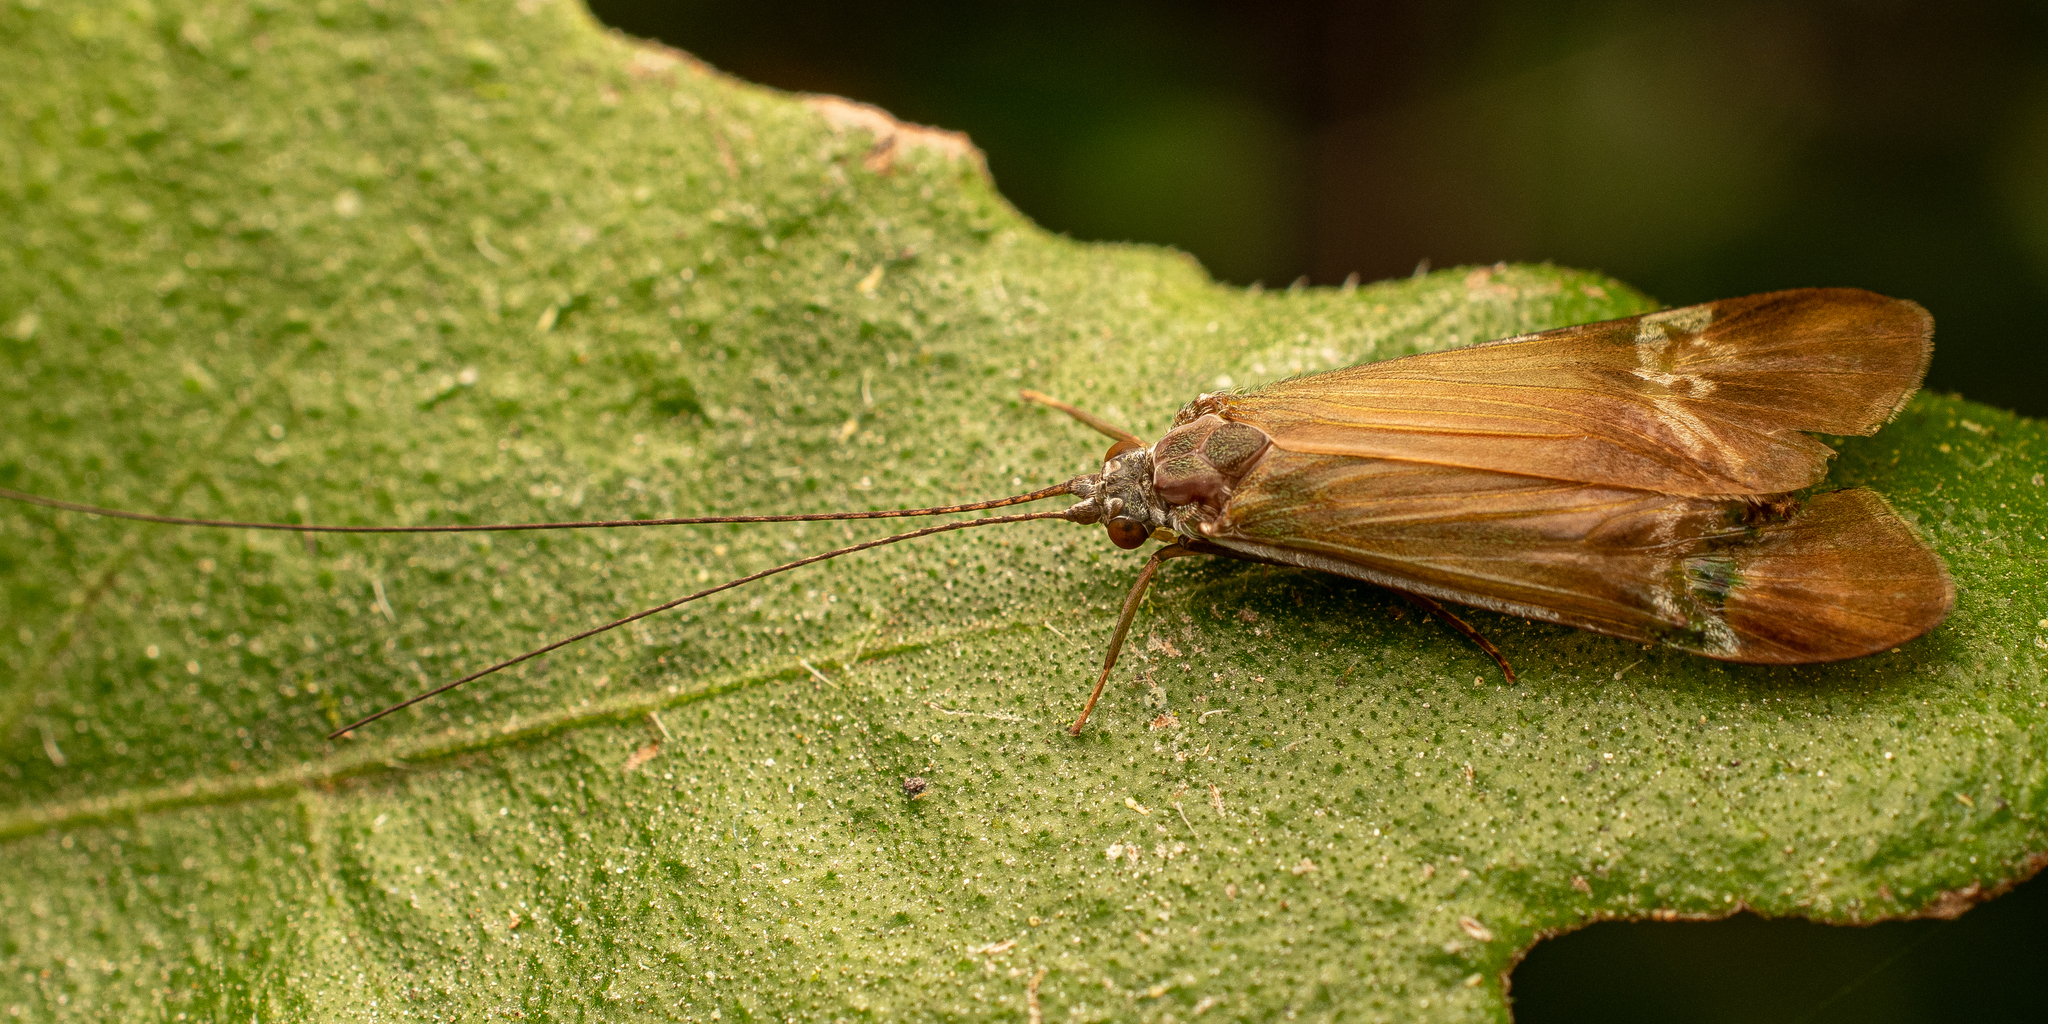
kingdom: Animalia
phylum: Arthropoda
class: Insecta
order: Trichoptera
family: Hydropsychidae
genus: Macronema
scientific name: Macronema argentilineatum
